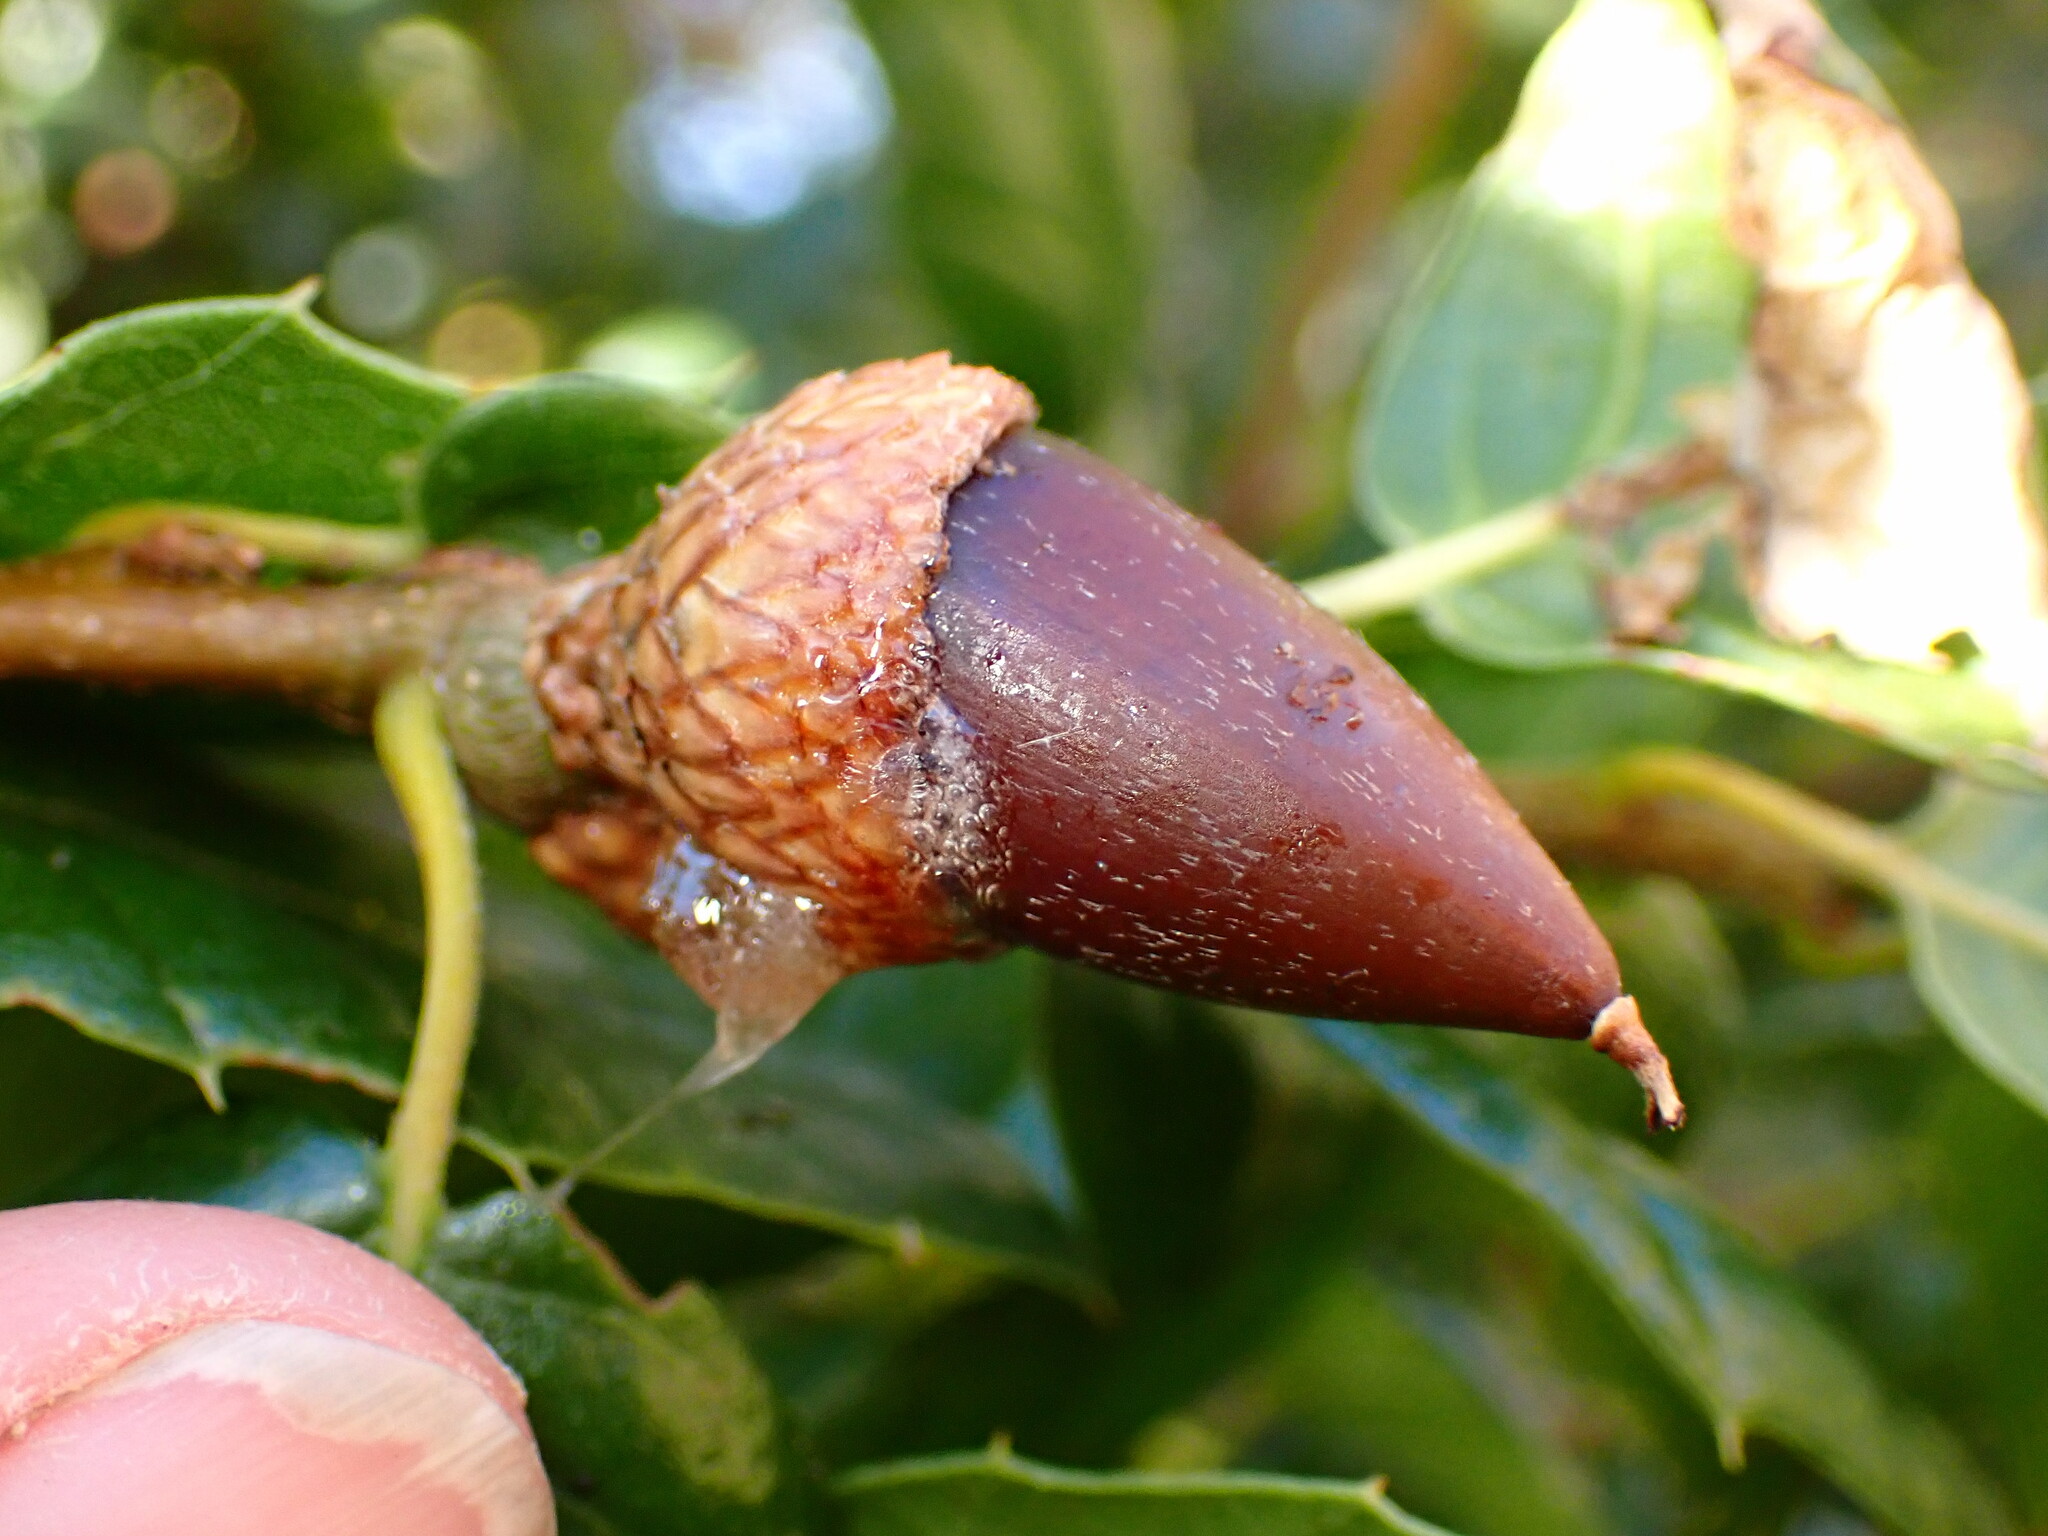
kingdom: Bacteria
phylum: Proteobacteria
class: Gammaproteobacteria
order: Enterobacterales
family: Enterobacteriaceae
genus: Lonsdalea
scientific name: Lonsdalea quercina
